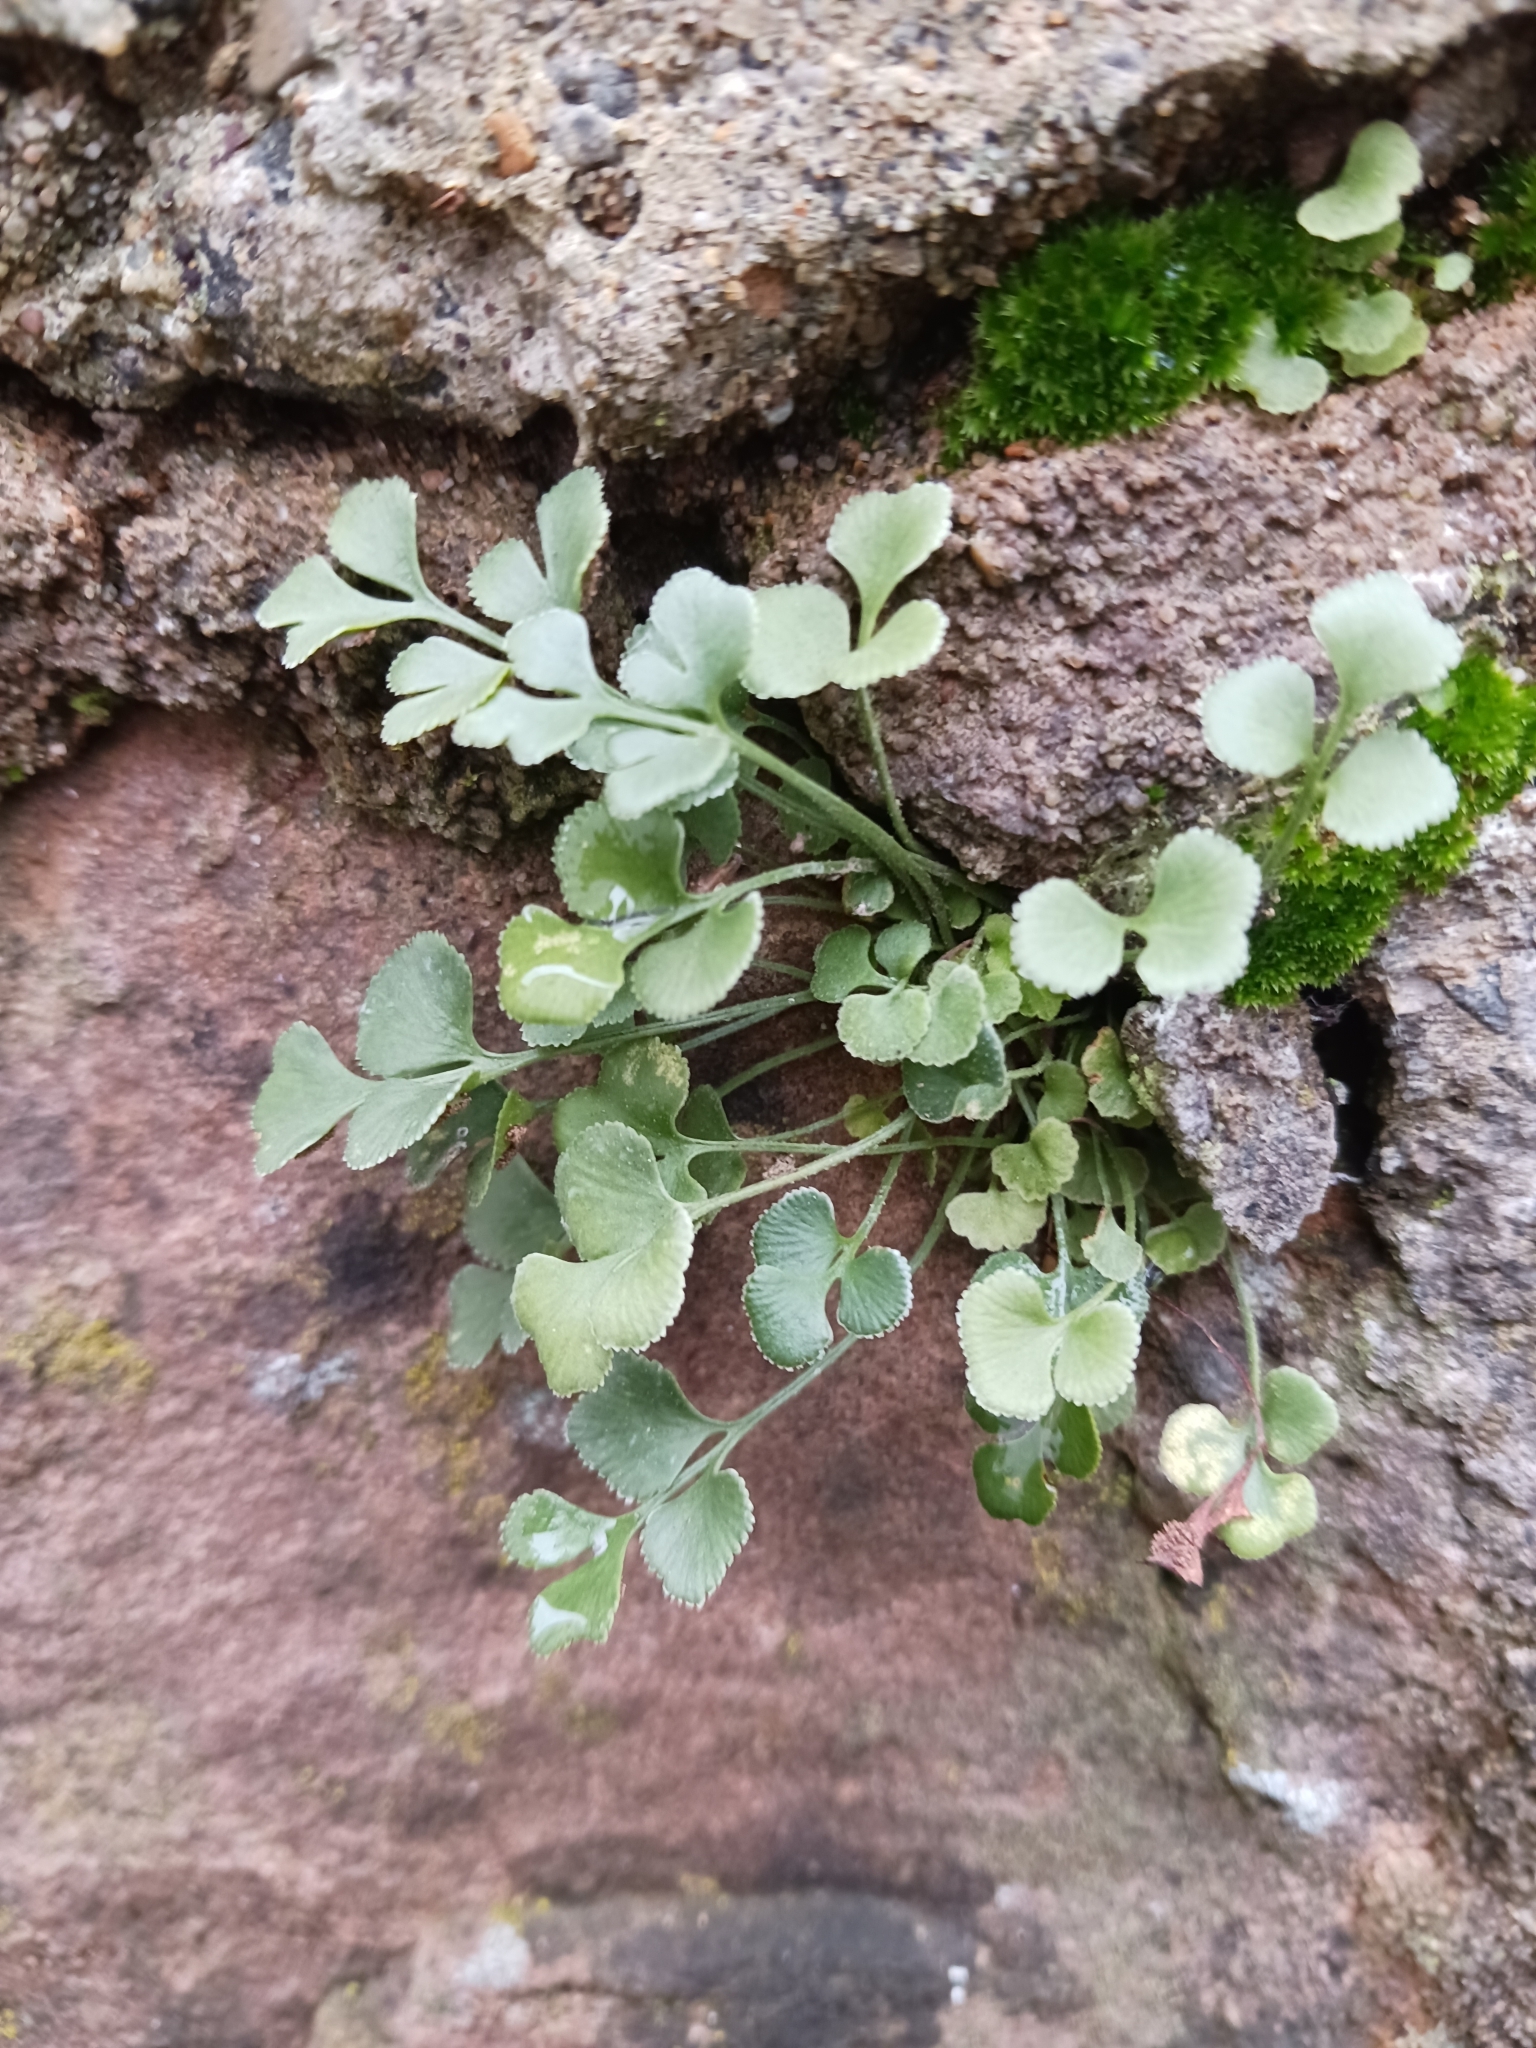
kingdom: Plantae
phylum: Tracheophyta
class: Polypodiopsida
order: Polypodiales
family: Aspleniaceae
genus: Asplenium
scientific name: Asplenium ruta-muraria
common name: Wall-rue
